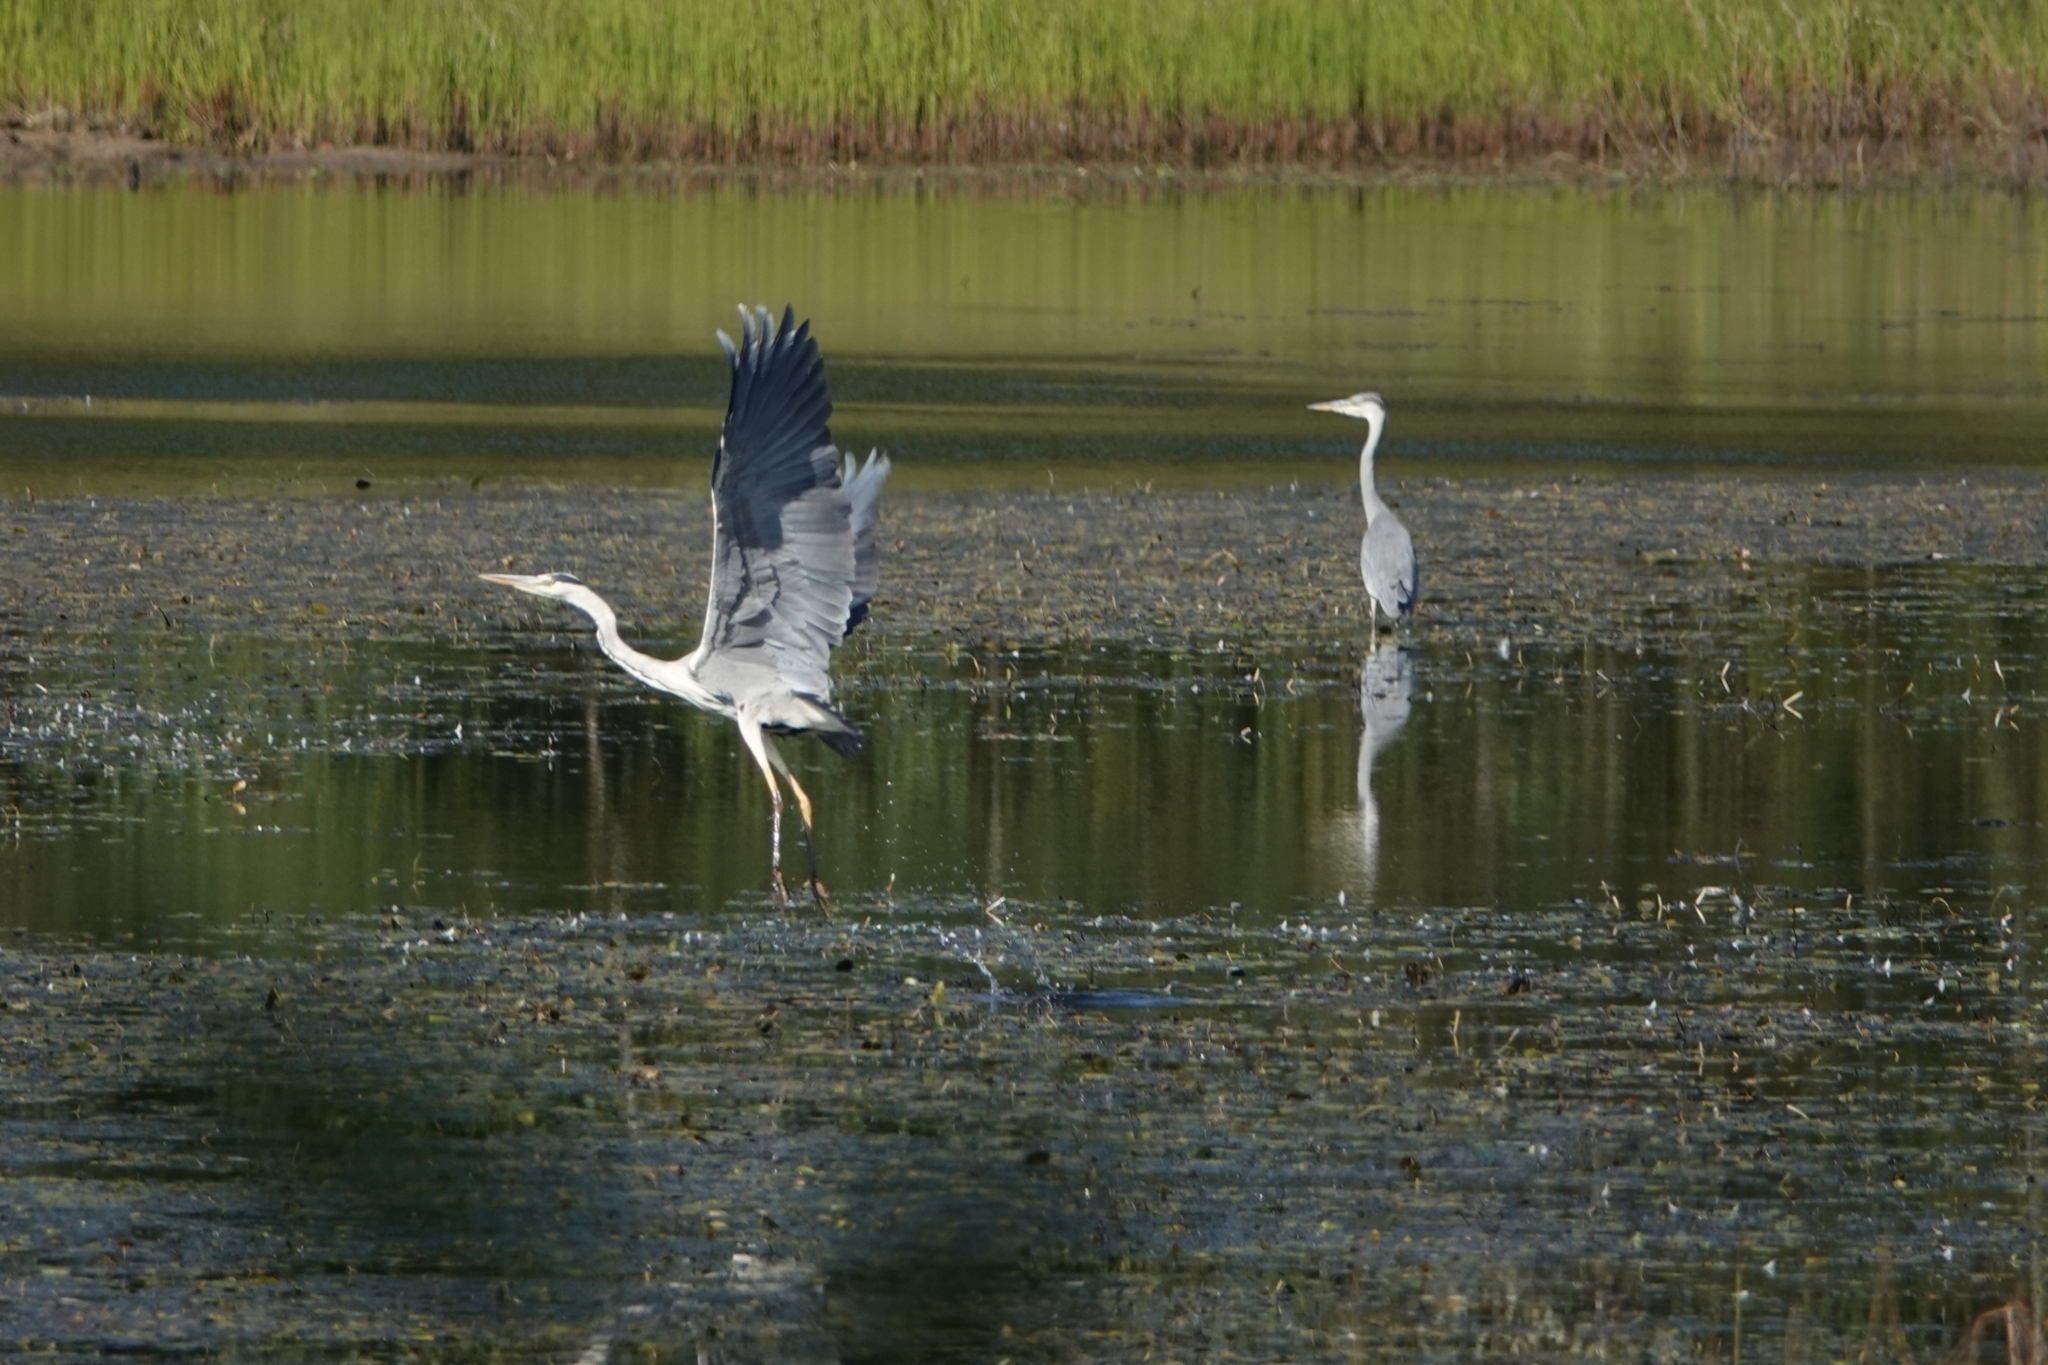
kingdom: Animalia
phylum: Chordata
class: Aves
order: Pelecaniformes
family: Ardeidae
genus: Ardea
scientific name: Ardea cinerea
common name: Grey heron
